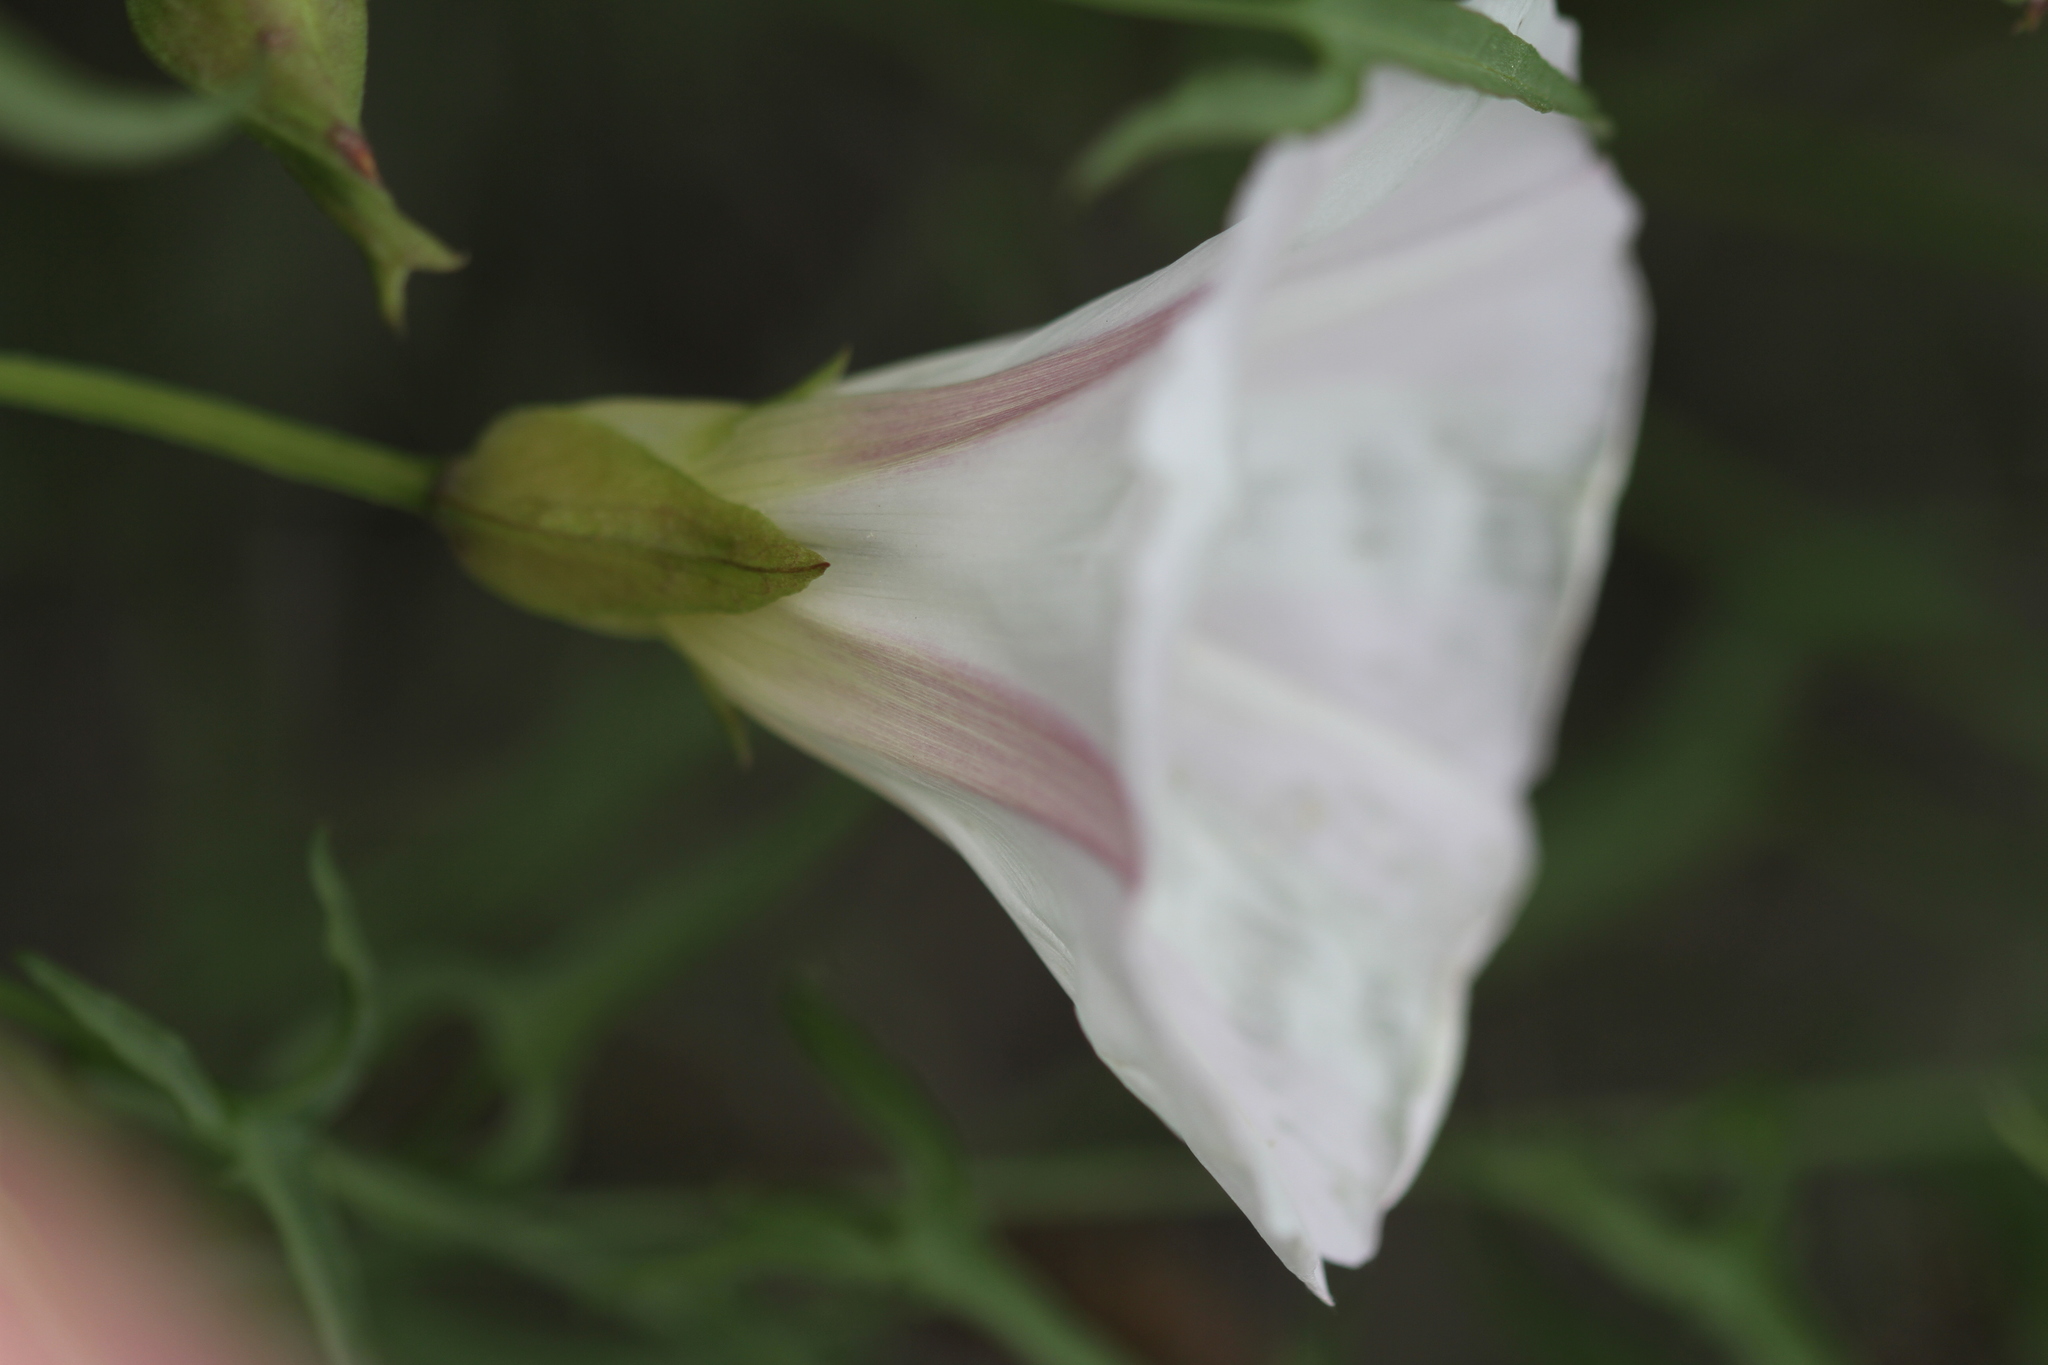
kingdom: Plantae
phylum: Tracheophyta
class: Magnoliopsida
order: Solanales
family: Convolvulaceae
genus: Calystegia
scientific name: Calystegia macrostegia
